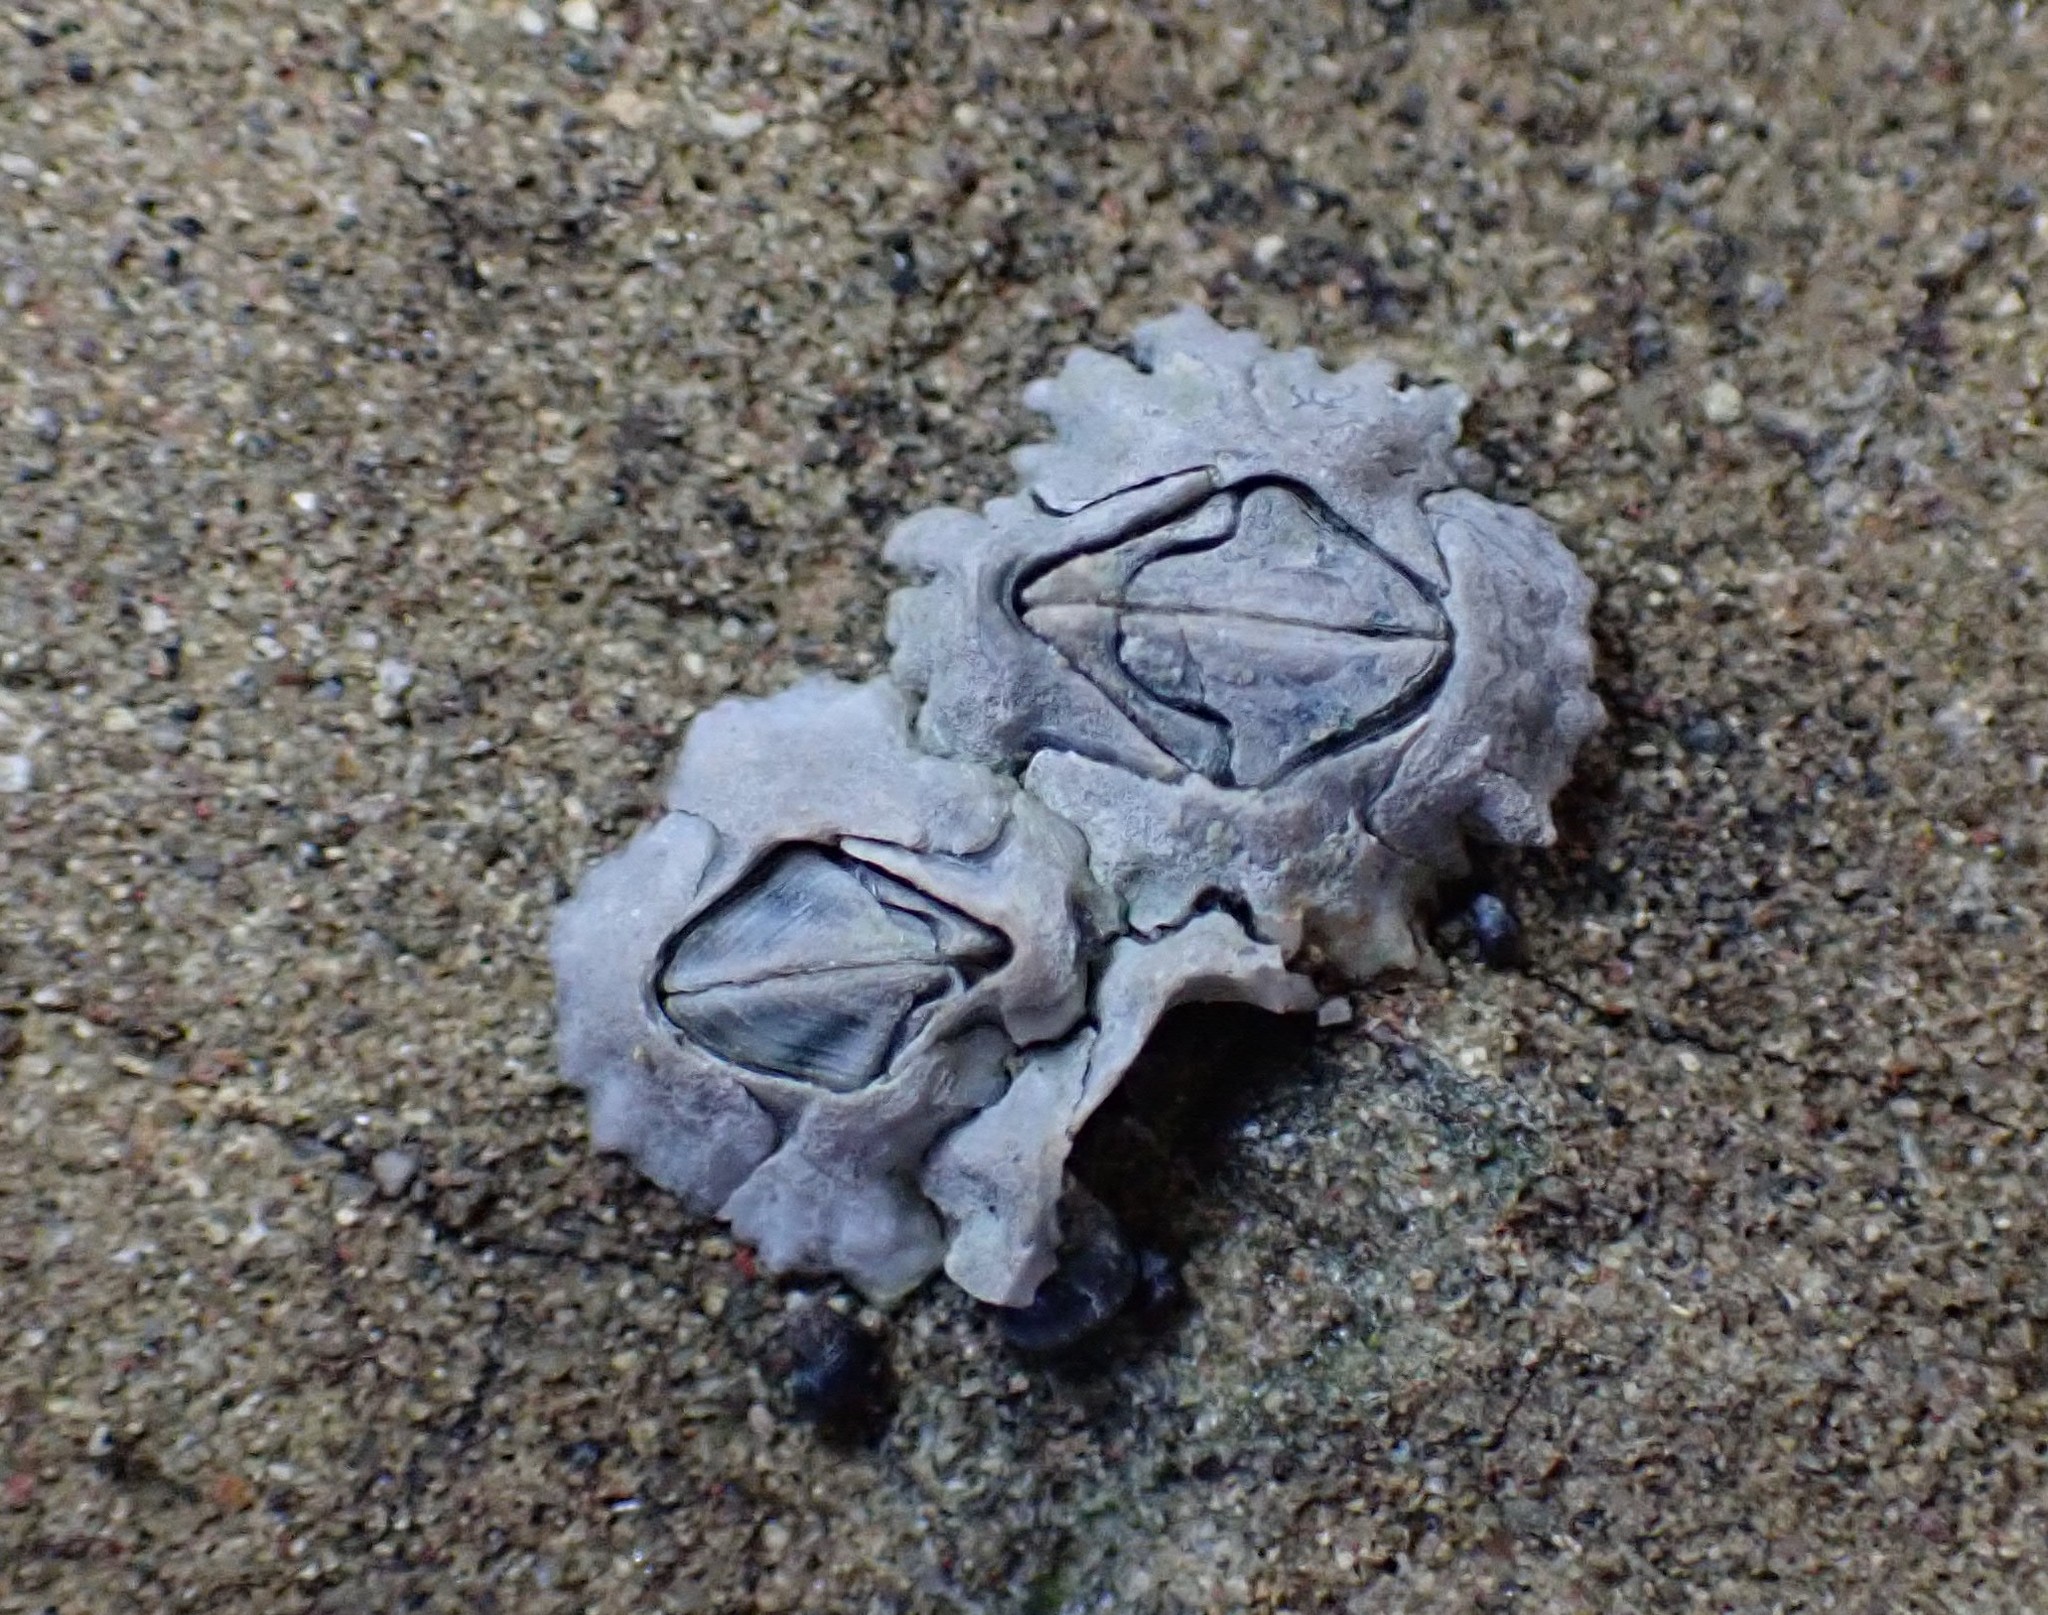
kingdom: Animalia
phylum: Arthropoda
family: Elminiidae
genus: Austrominius
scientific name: Austrominius modestus
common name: Australasian barnacle
